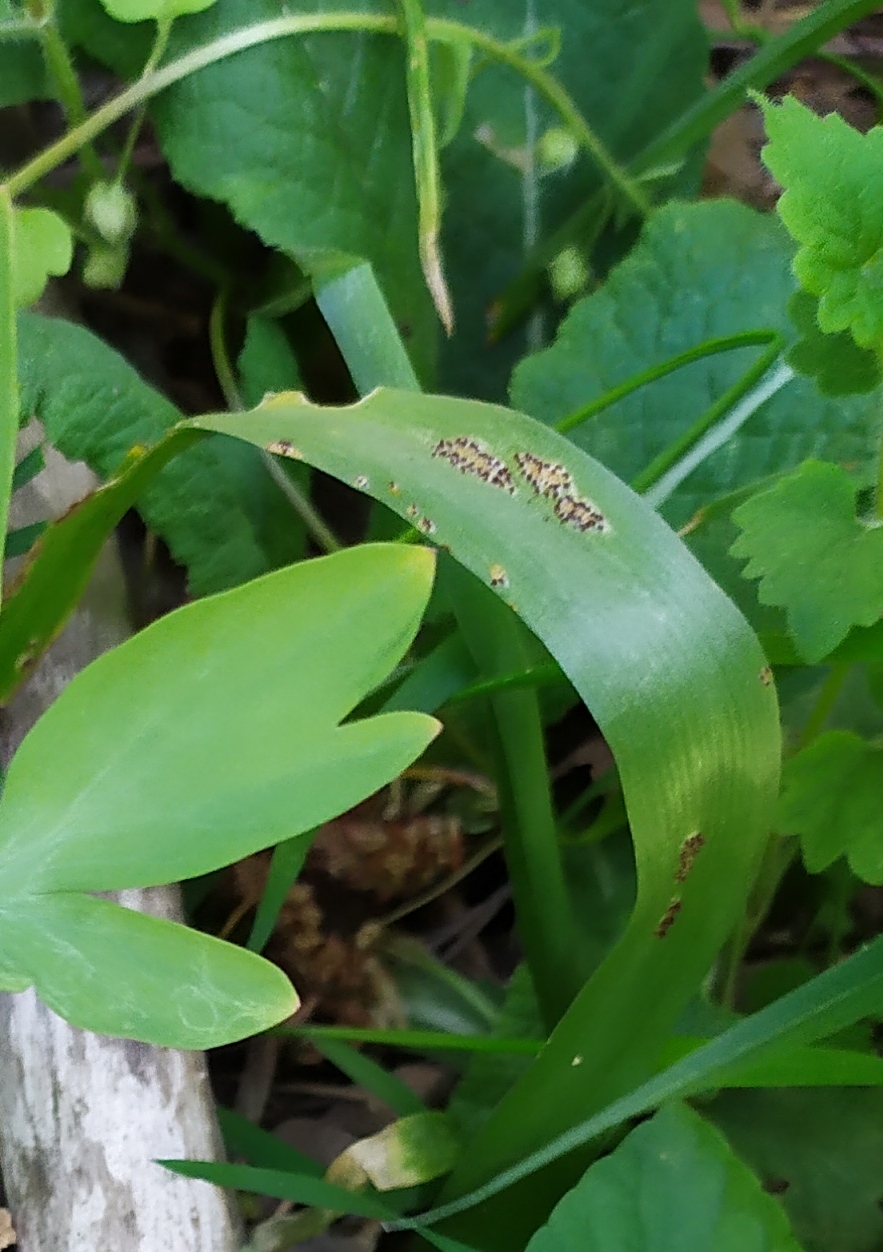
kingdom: Fungi
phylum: Basidiomycota
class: Pucciniomycetes
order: Pucciniales
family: Pucciniaceae
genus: Puccinia
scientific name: Puccinia rossiana
